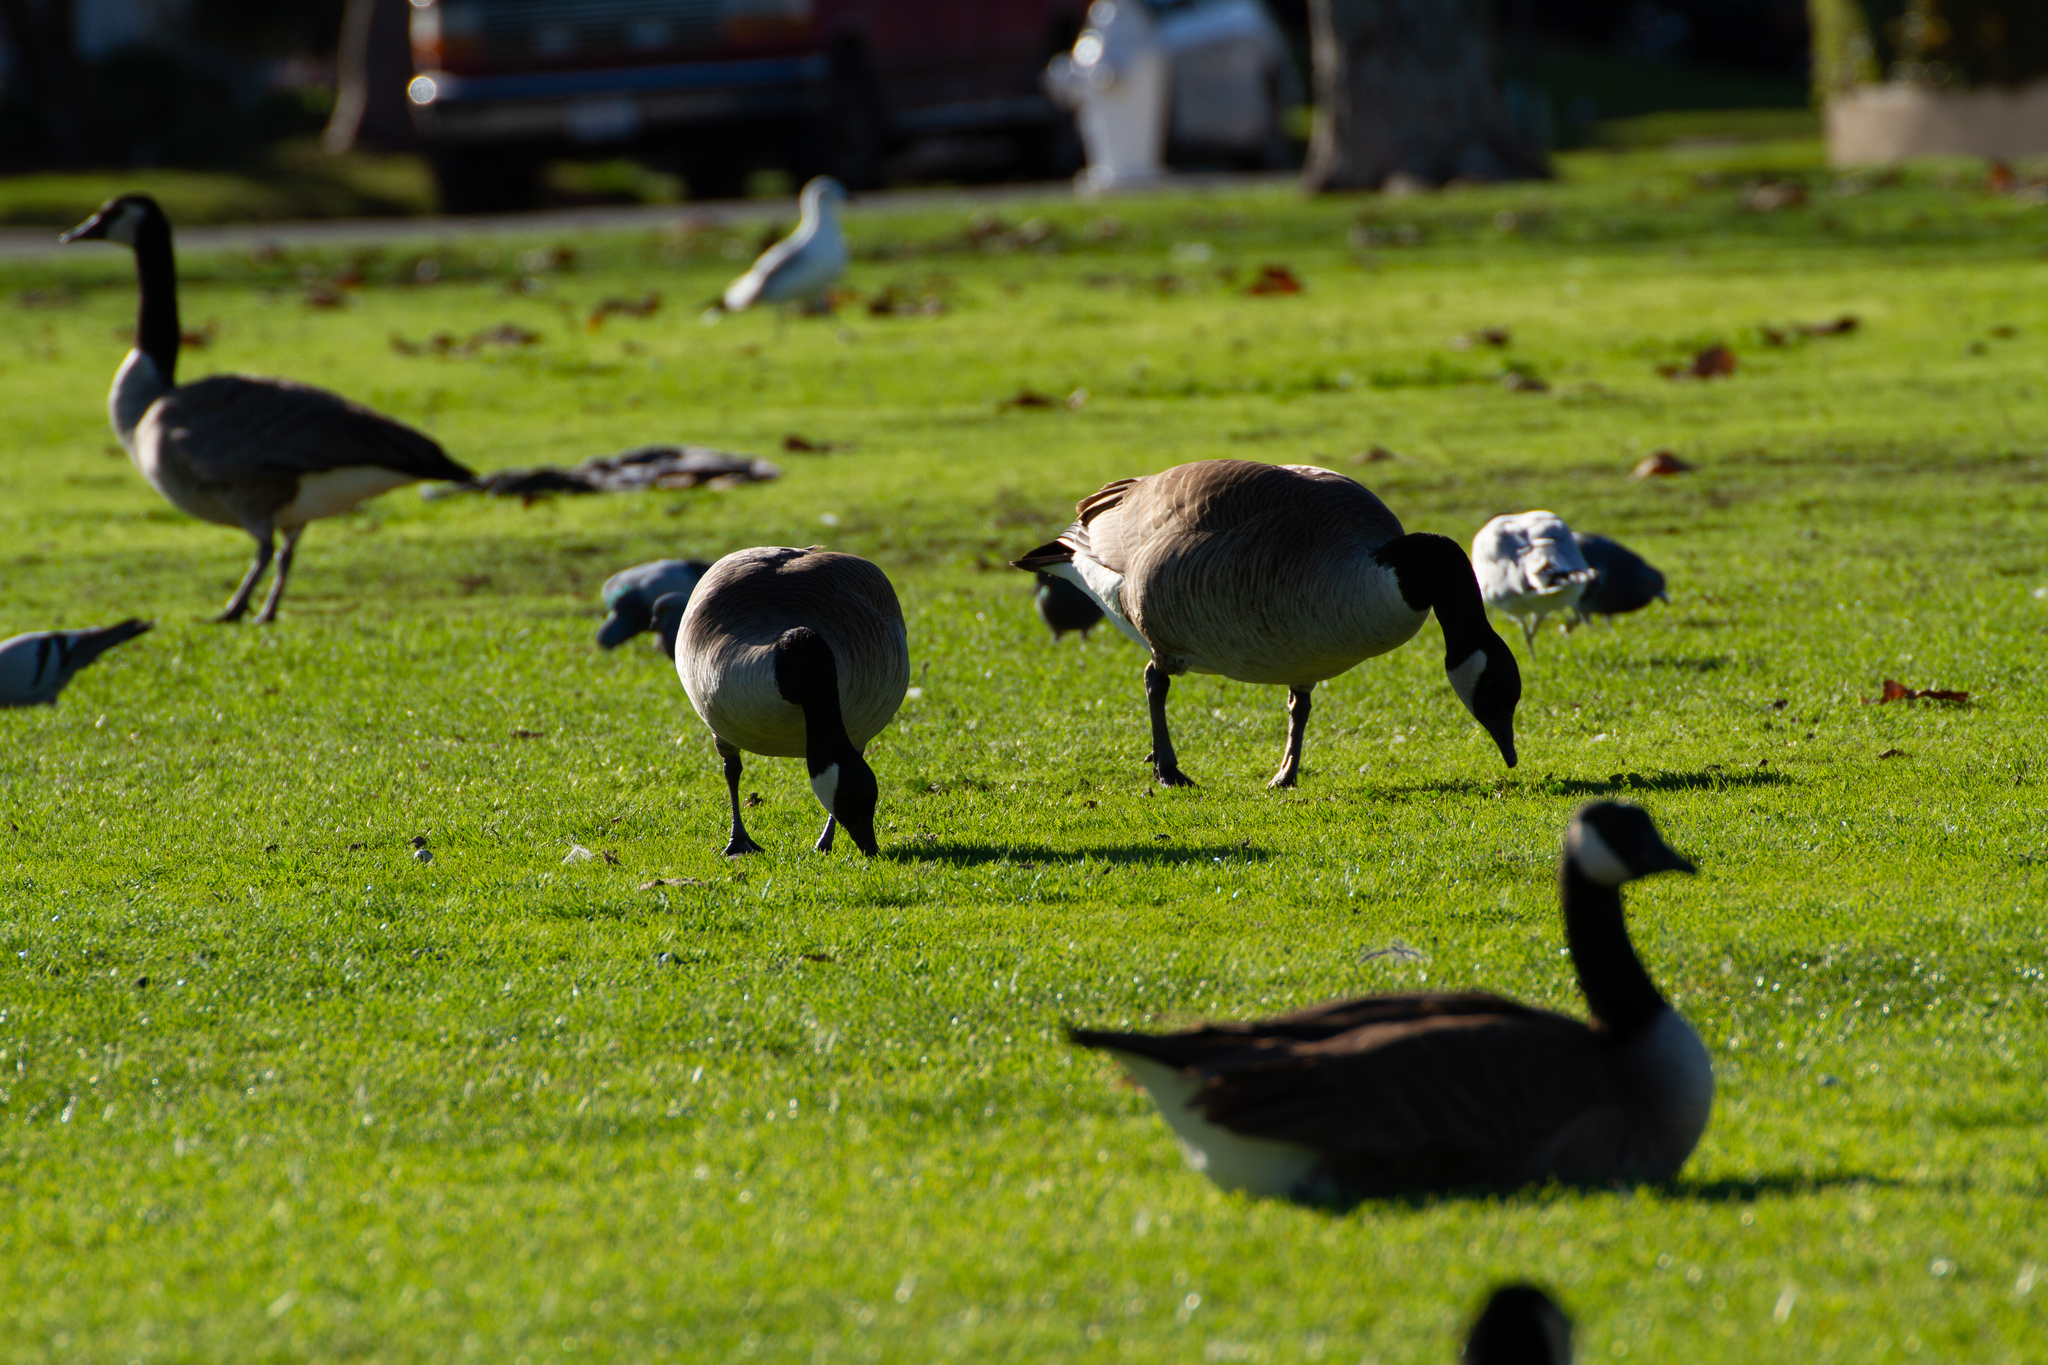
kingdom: Animalia
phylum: Chordata
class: Aves
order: Anseriformes
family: Anatidae
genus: Branta
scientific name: Branta canadensis
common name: Canada goose
